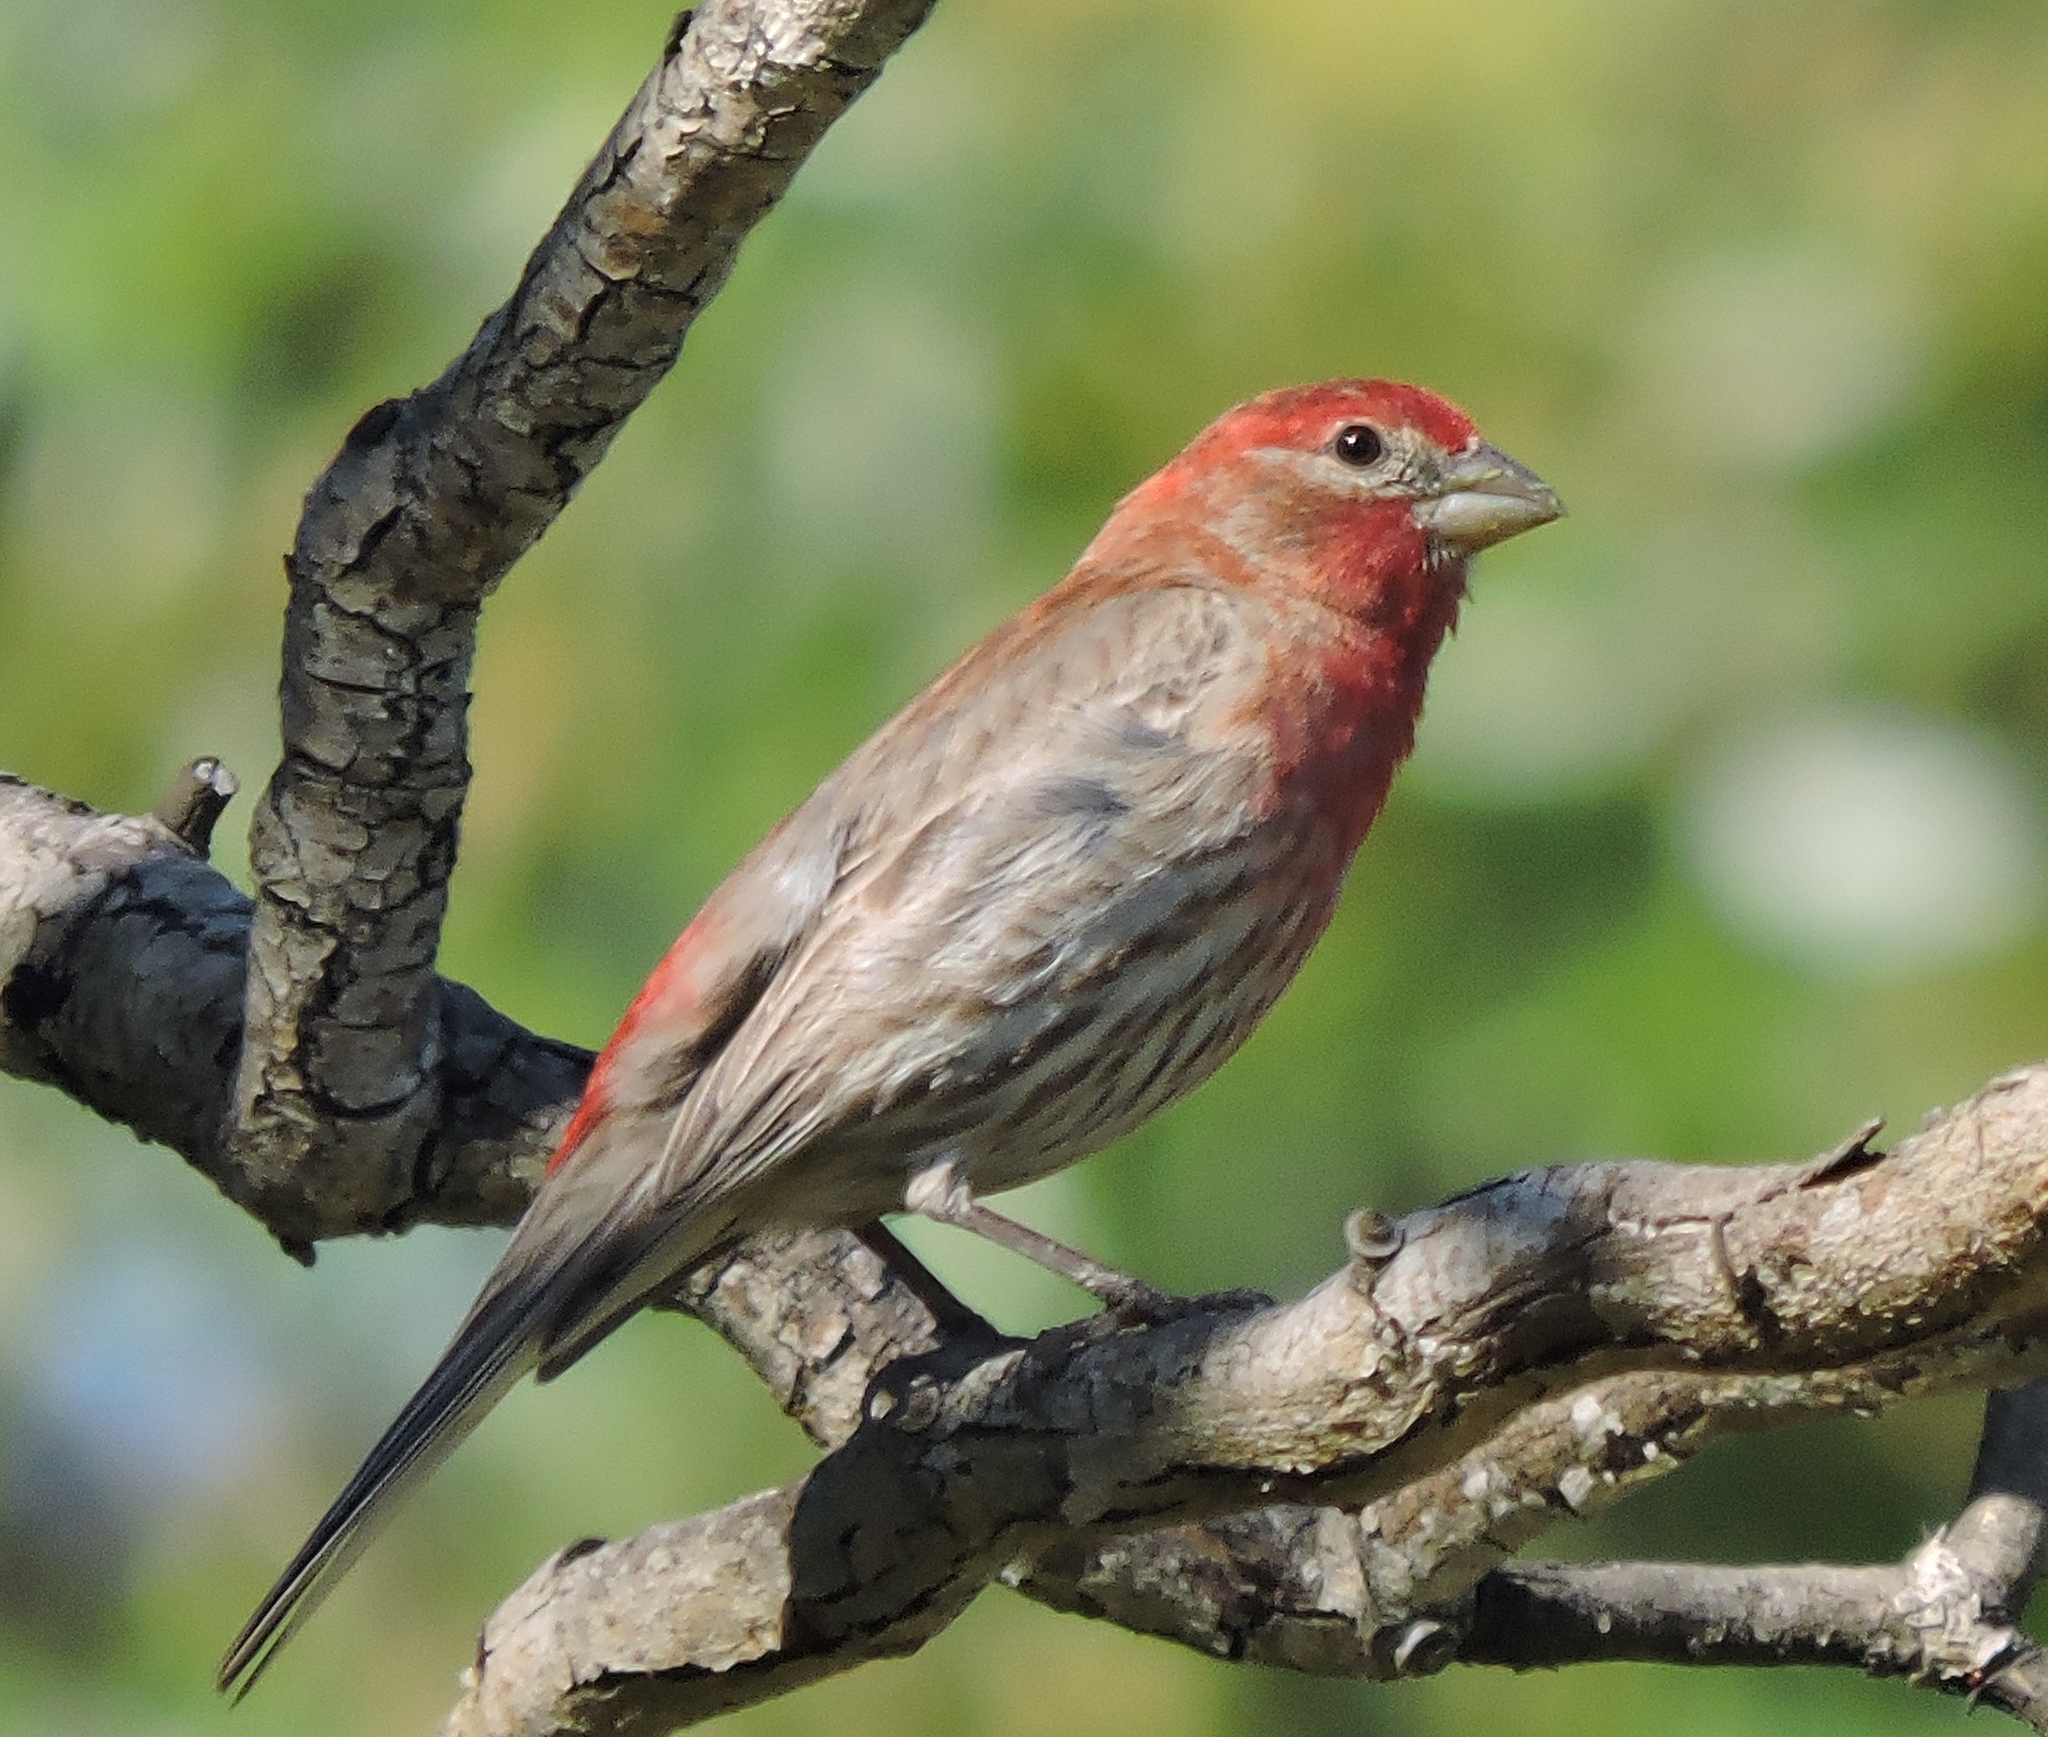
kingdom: Animalia
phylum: Chordata
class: Aves
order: Passeriformes
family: Fringillidae
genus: Haemorhous
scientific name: Haemorhous mexicanus
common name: House finch
